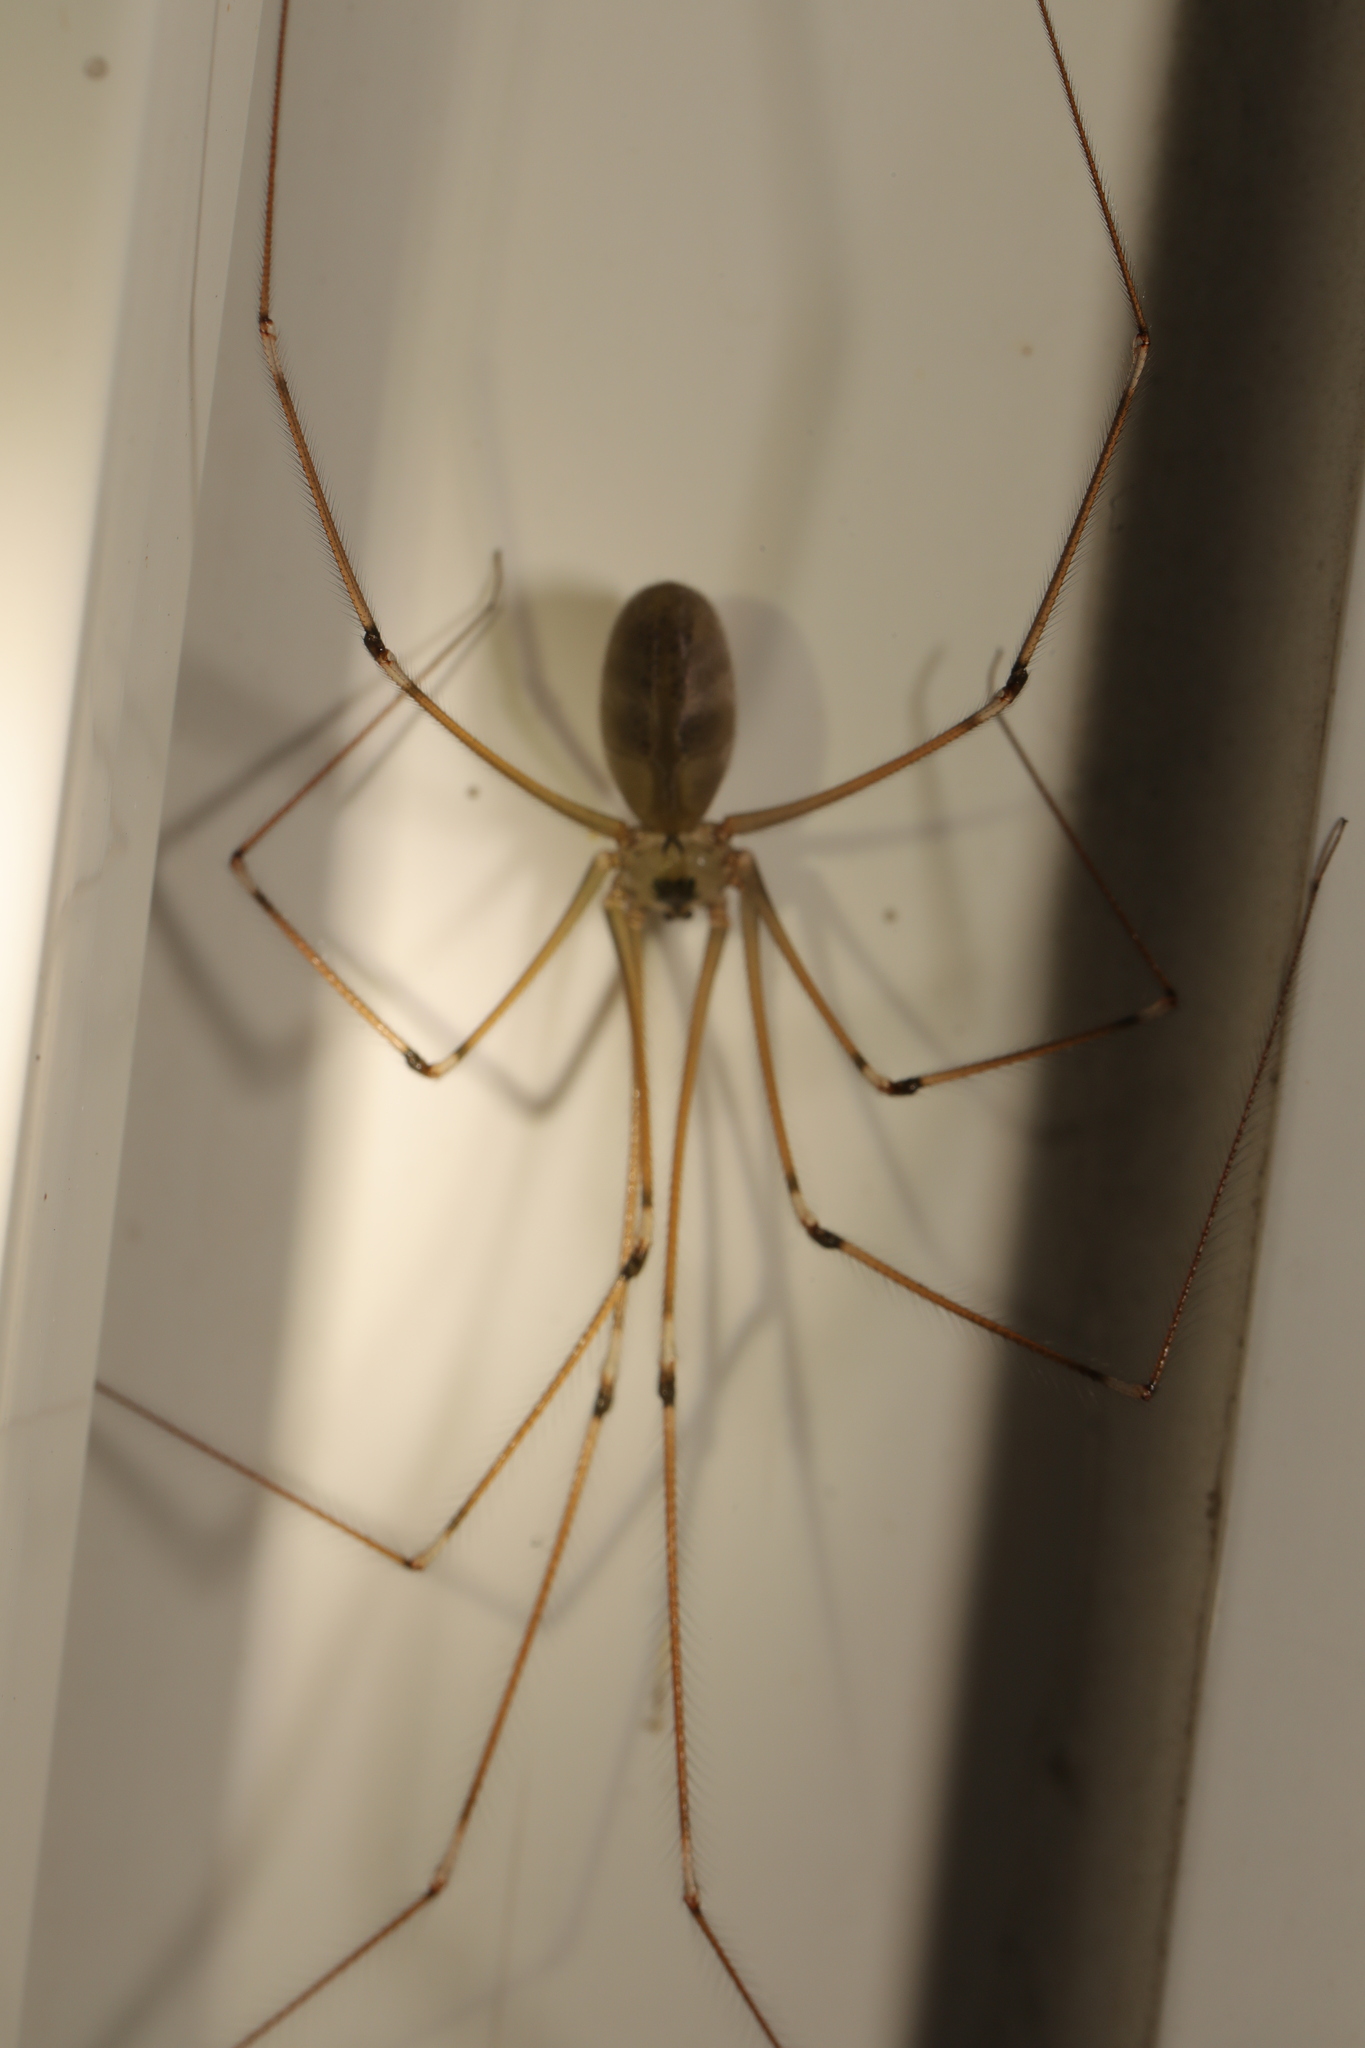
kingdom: Animalia
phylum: Arthropoda
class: Arachnida
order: Araneae
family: Pholcidae
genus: Pholcus
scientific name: Pholcus phalangioides
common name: Longbodied cellar spider
